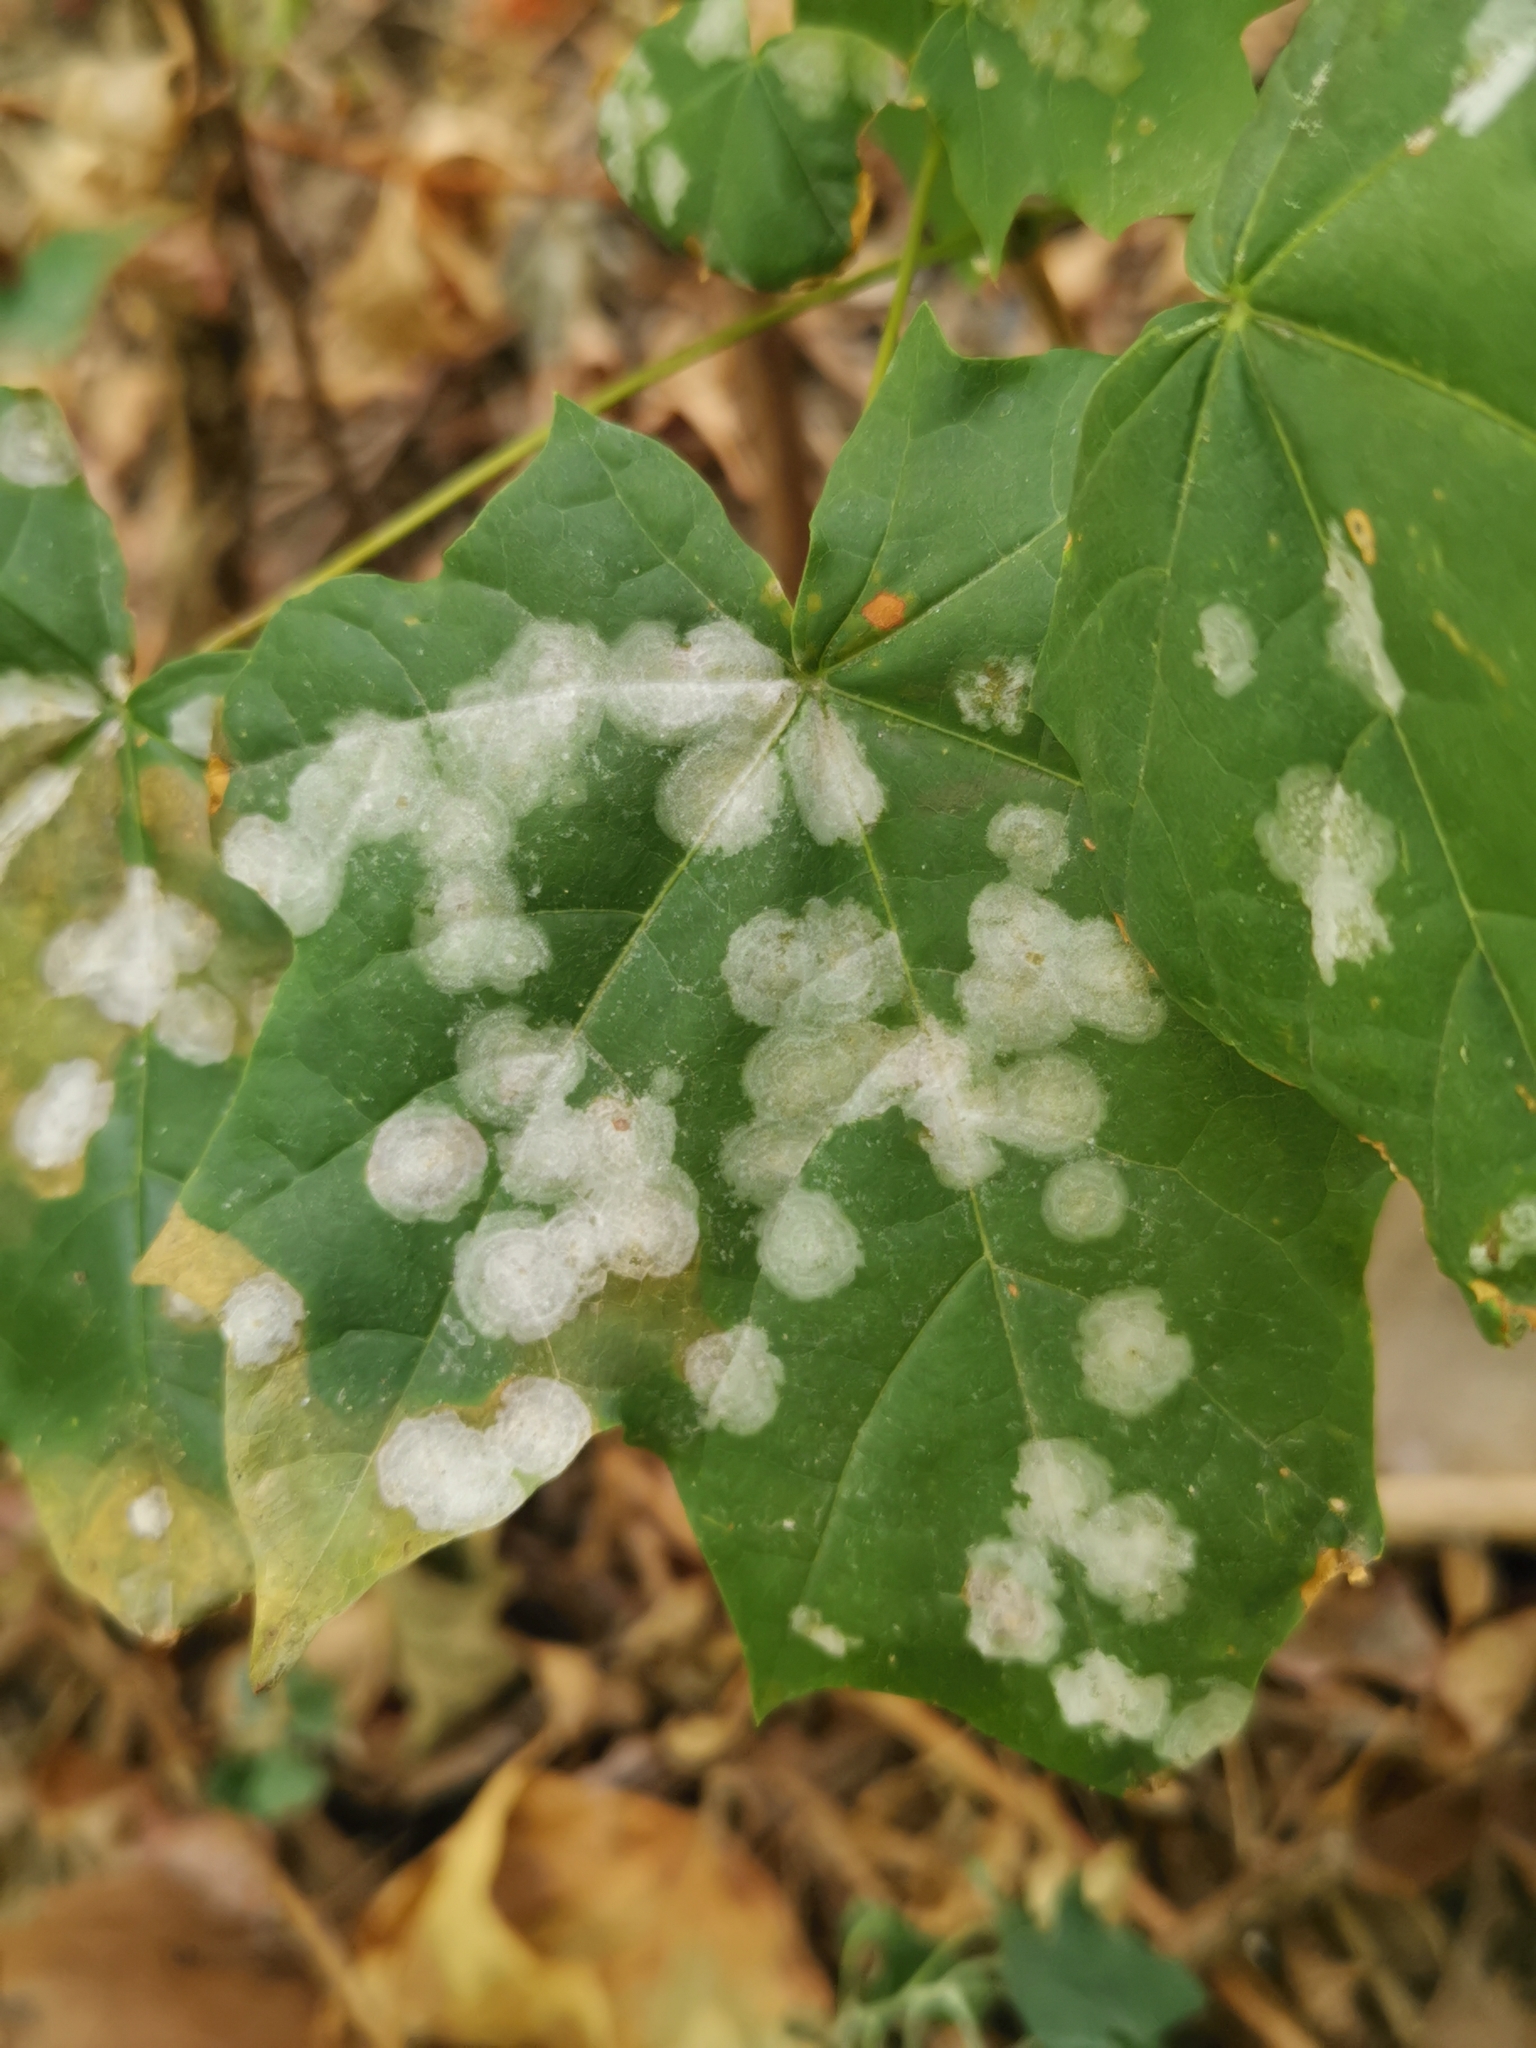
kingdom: Fungi
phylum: Ascomycota
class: Leotiomycetes
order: Helotiales
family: Erysiphaceae
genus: Sawadaea
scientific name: Sawadaea tulasnei
